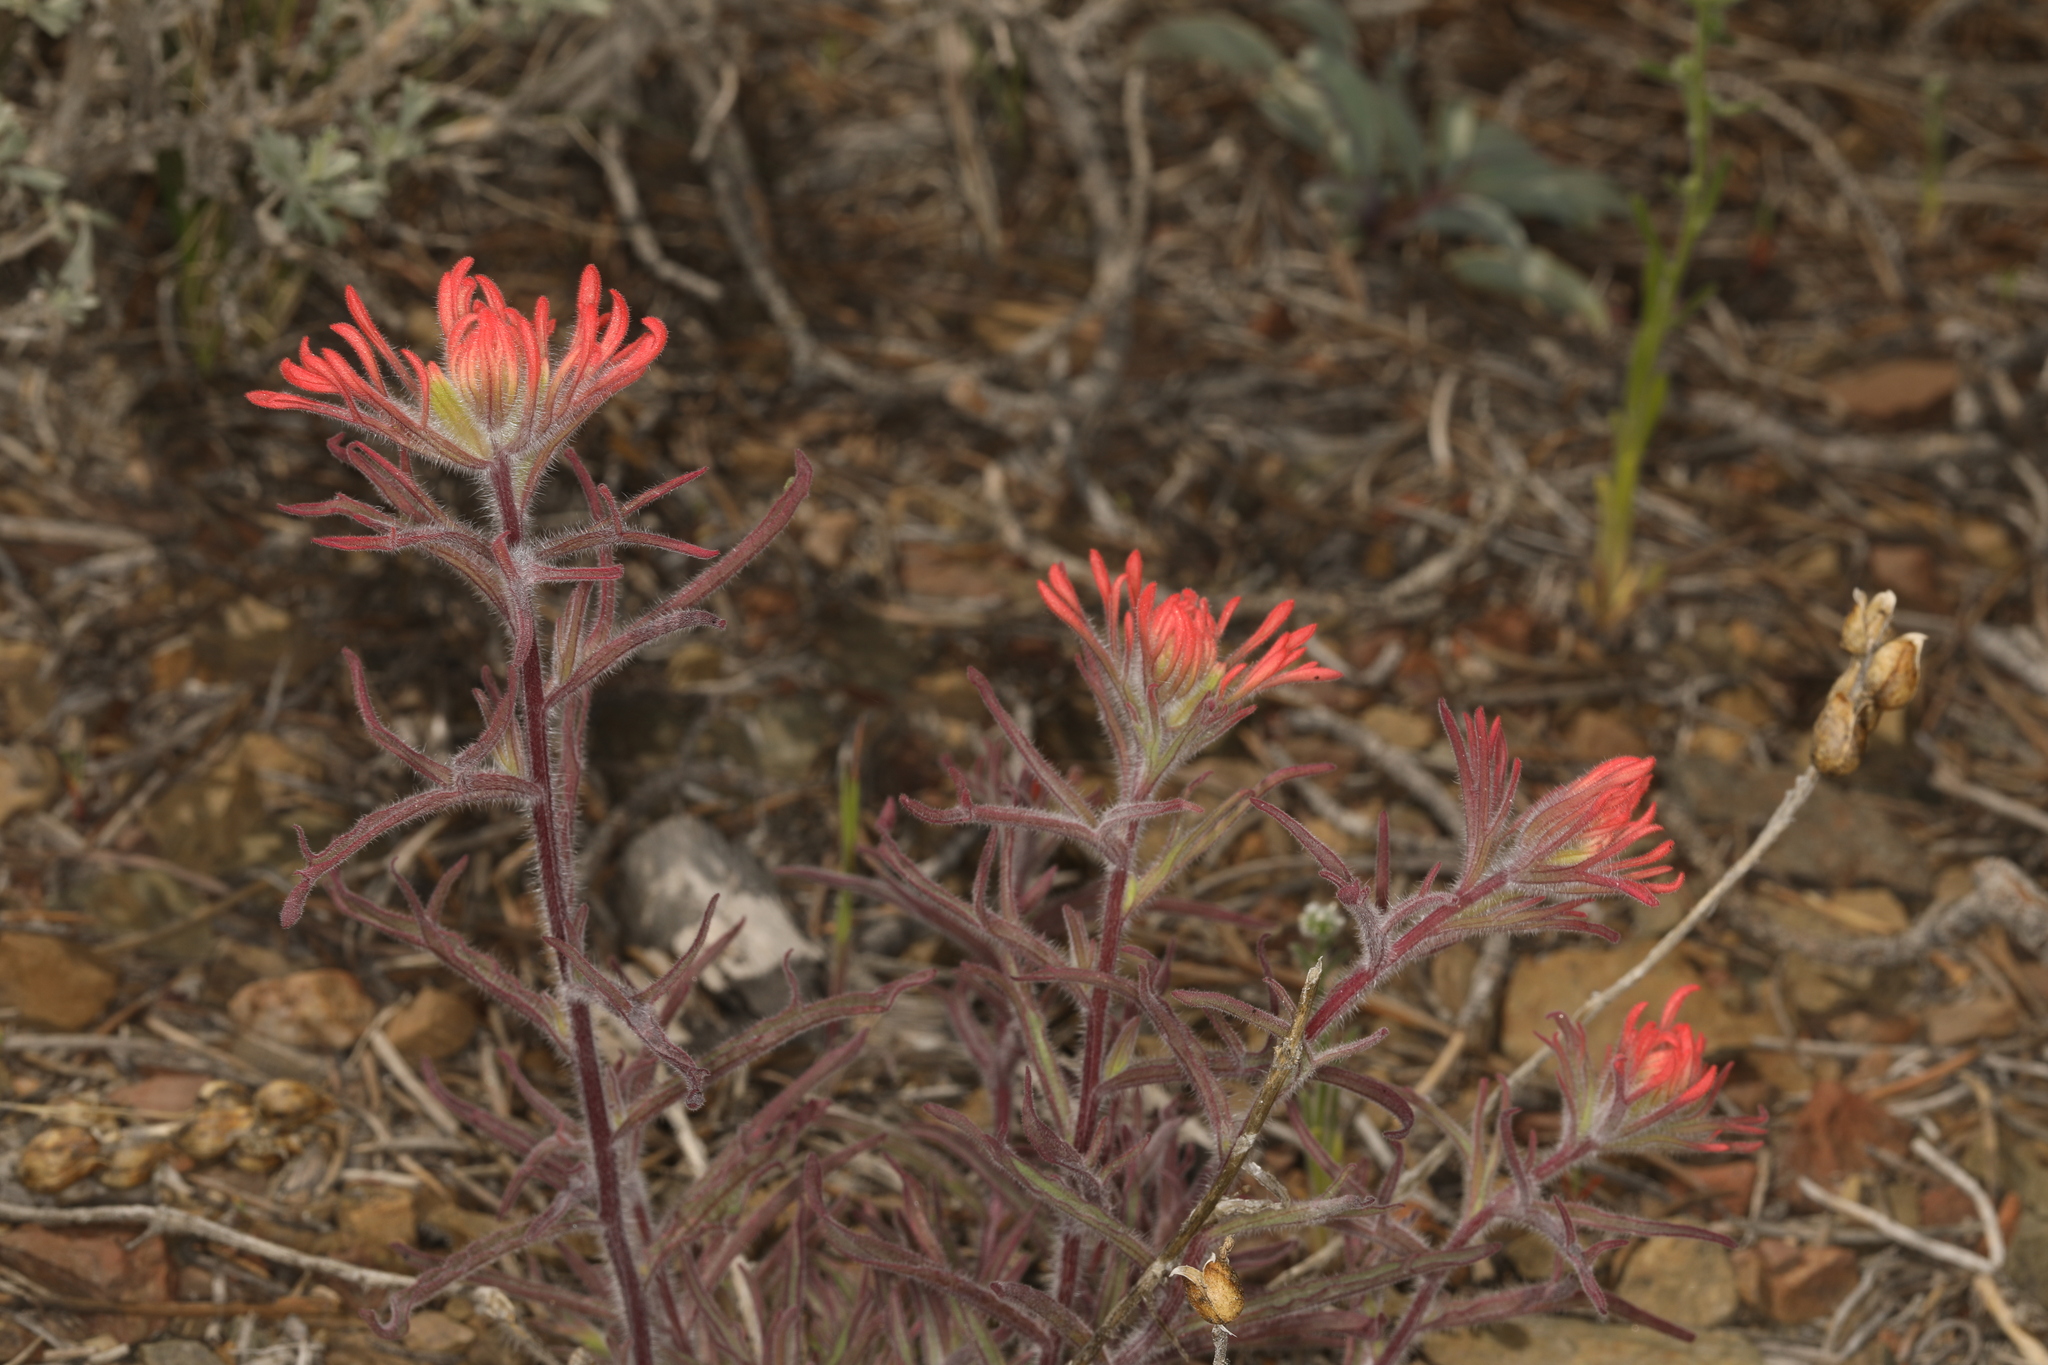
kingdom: Plantae
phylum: Tracheophyta
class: Magnoliopsida
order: Lamiales
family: Orobanchaceae
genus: Castilleja
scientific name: Castilleja chromosa
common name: Desert paintbrush
